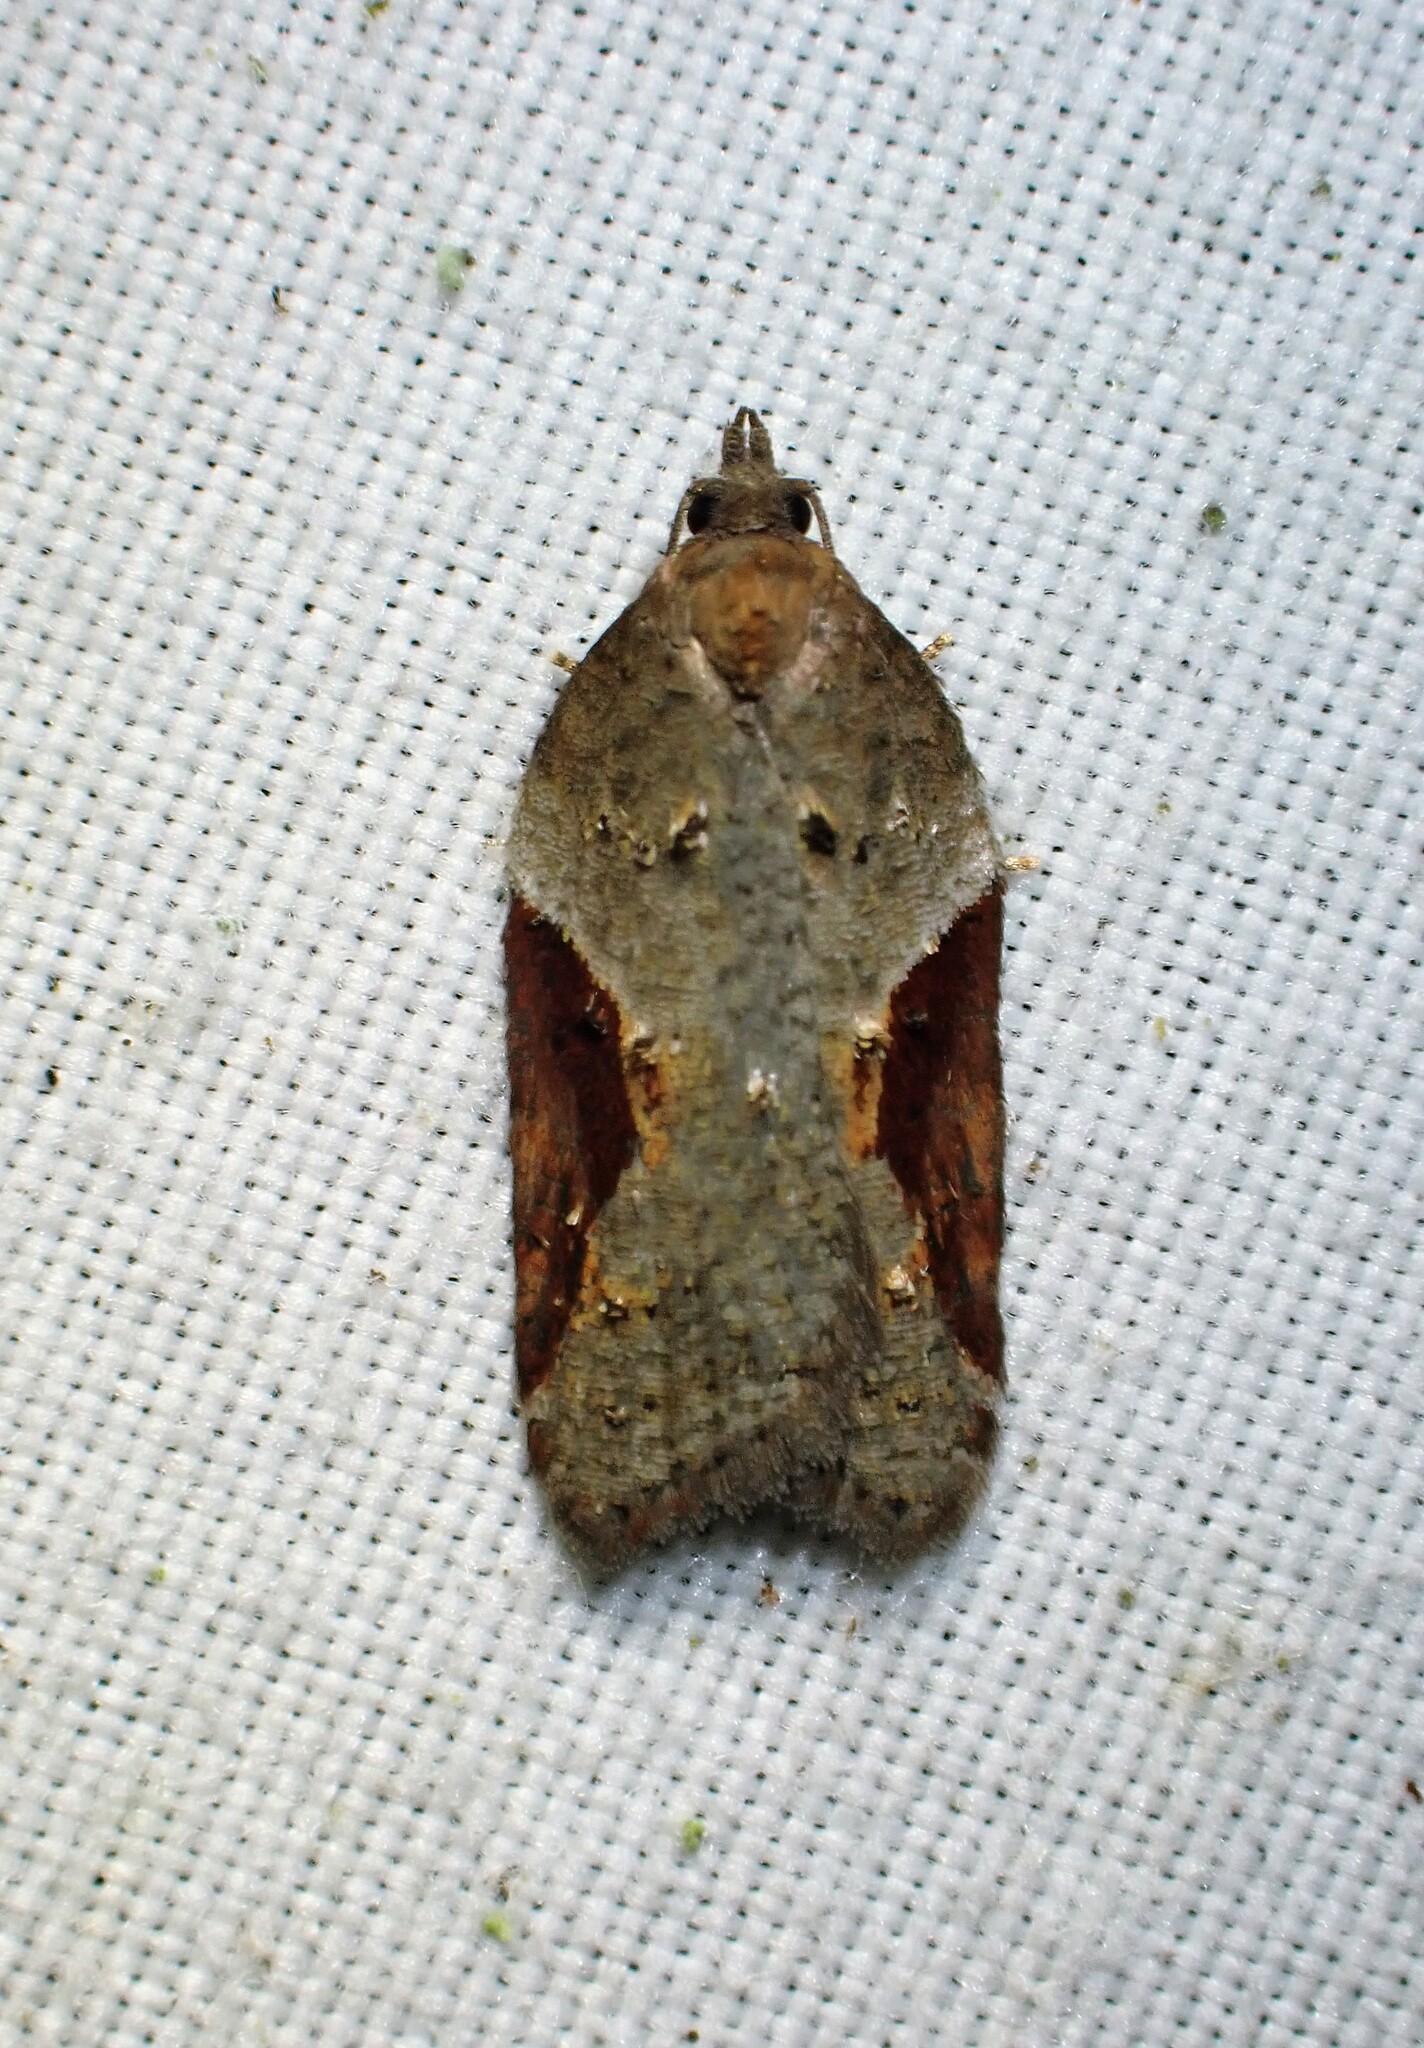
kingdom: Animalia
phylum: Arthropoda
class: Insecta
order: Lepidoptera
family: Tortricidae
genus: Acleris
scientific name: Acleris macdunnoughi
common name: Macdunnough's acleris
